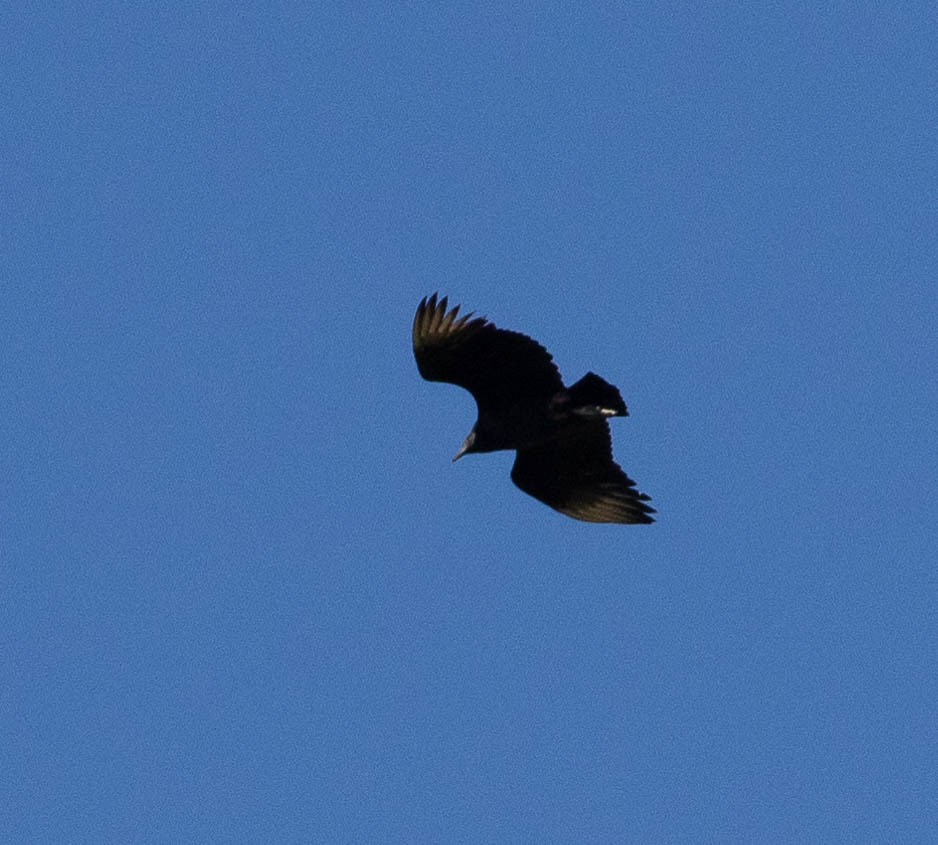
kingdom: Animalia
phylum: Chordata
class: Aves
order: Accipitriformes
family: Cathartidae
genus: Coragyps
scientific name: Coragyps atratus
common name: Black vulture
